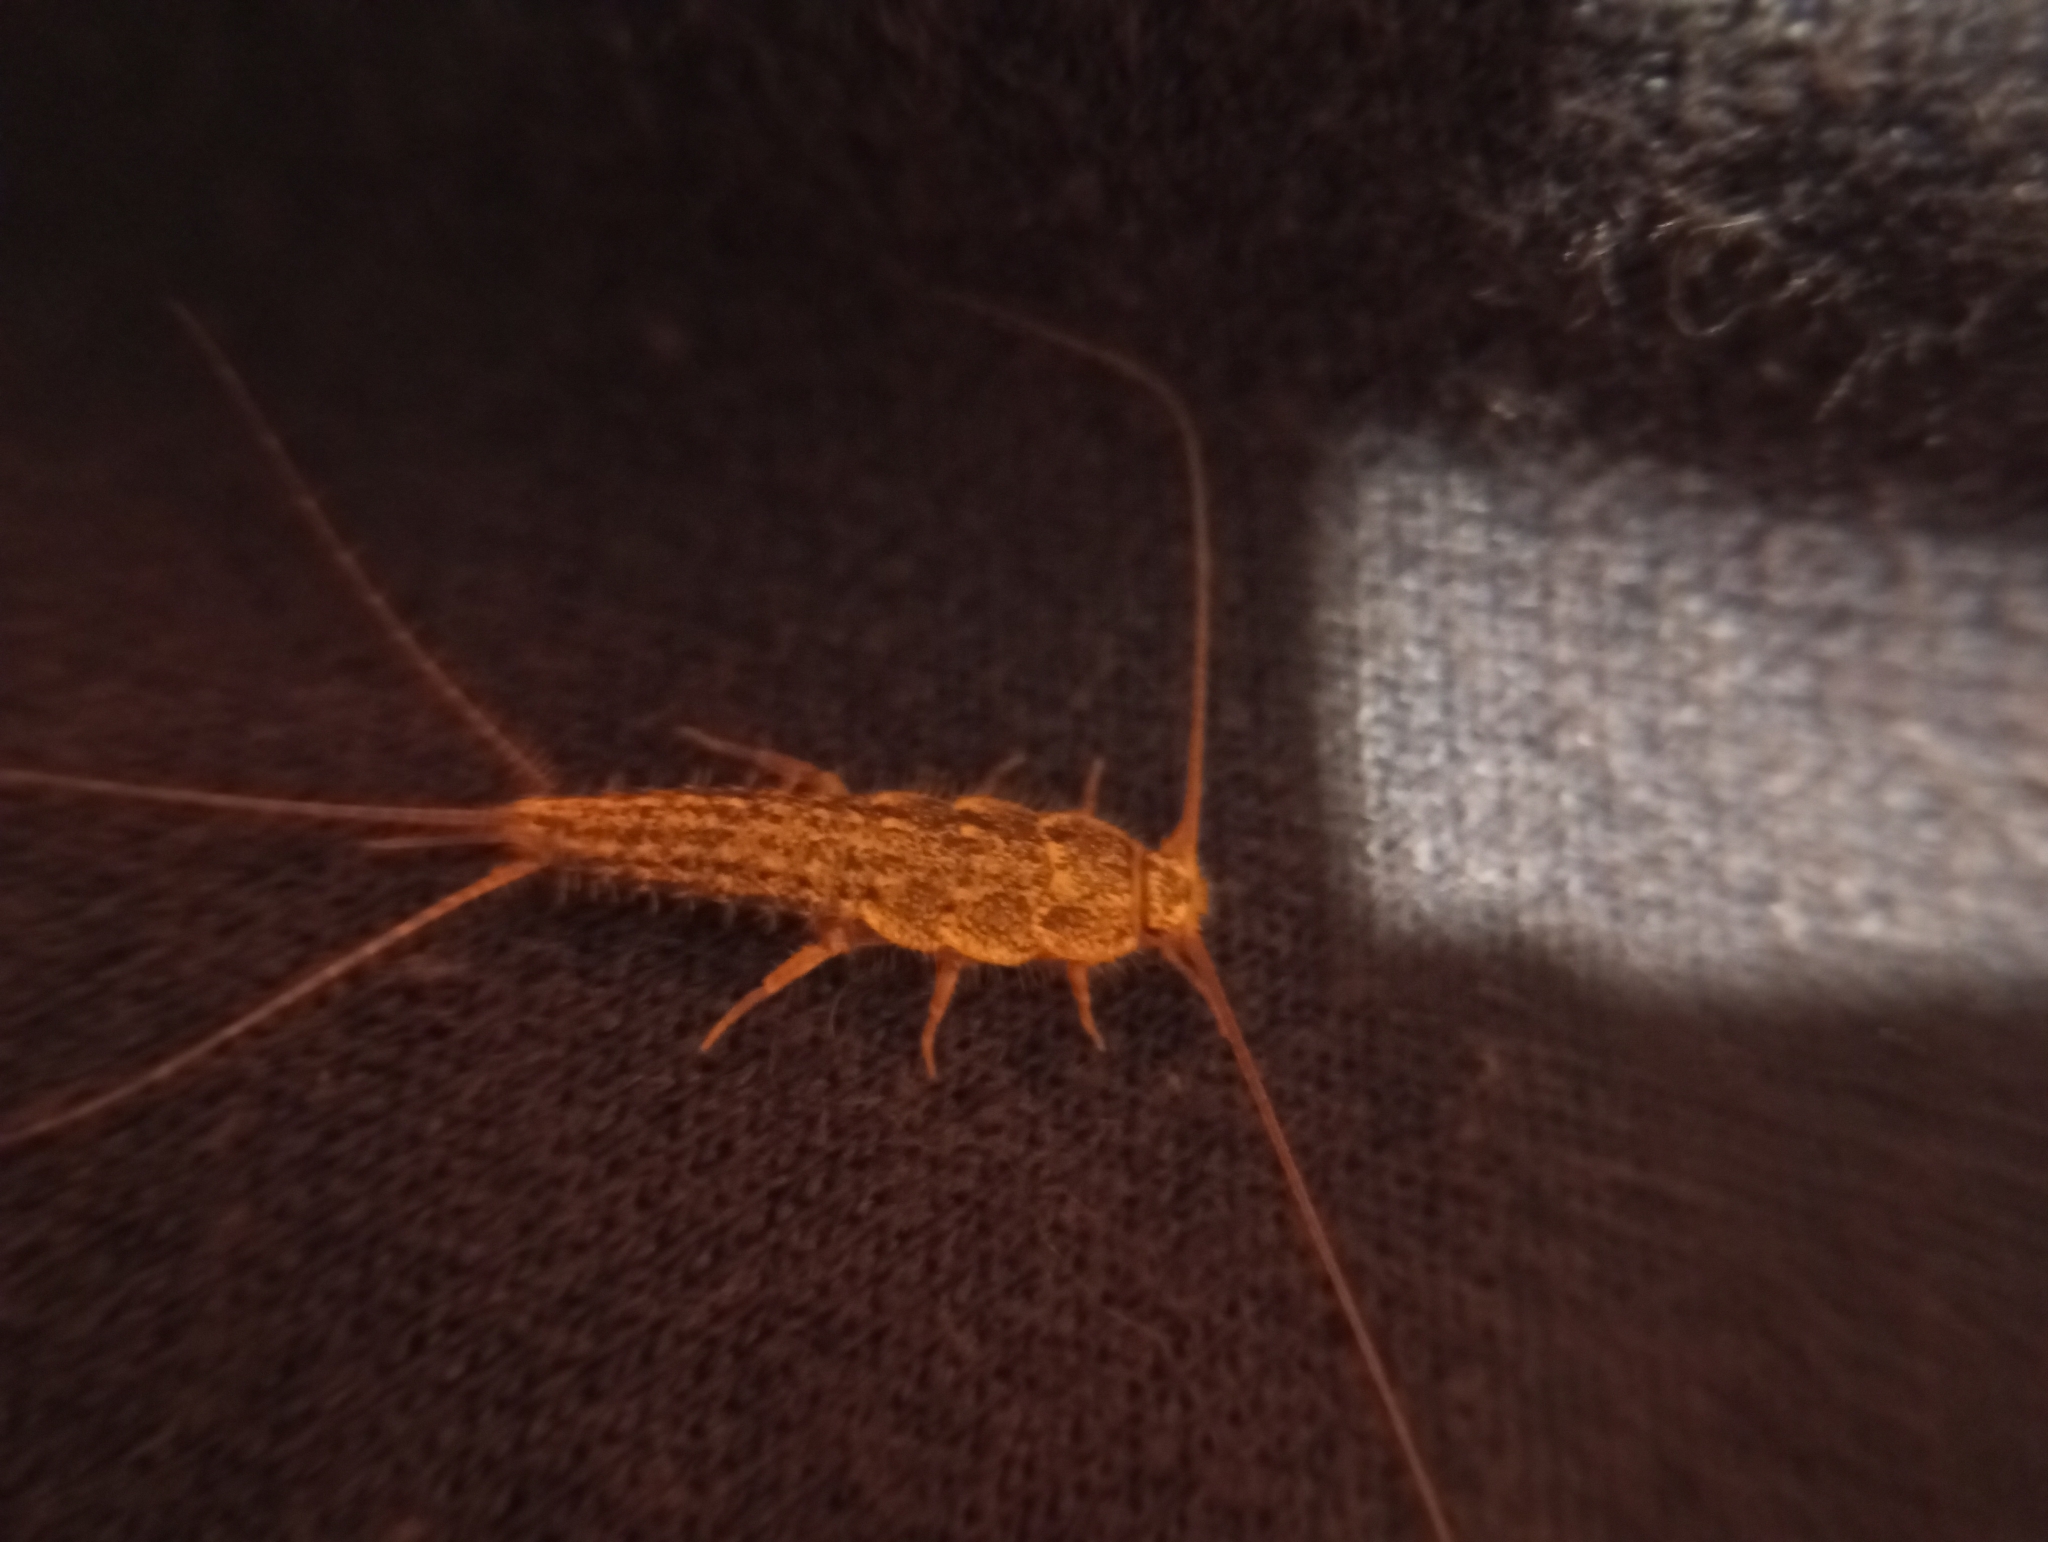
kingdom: Animalia
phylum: Arthropoda
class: Insecta
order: Zygentoma
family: Lepismatidae
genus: Ctenolepisma
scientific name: Ctenolepisma lineata
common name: Four-lined silverfish
